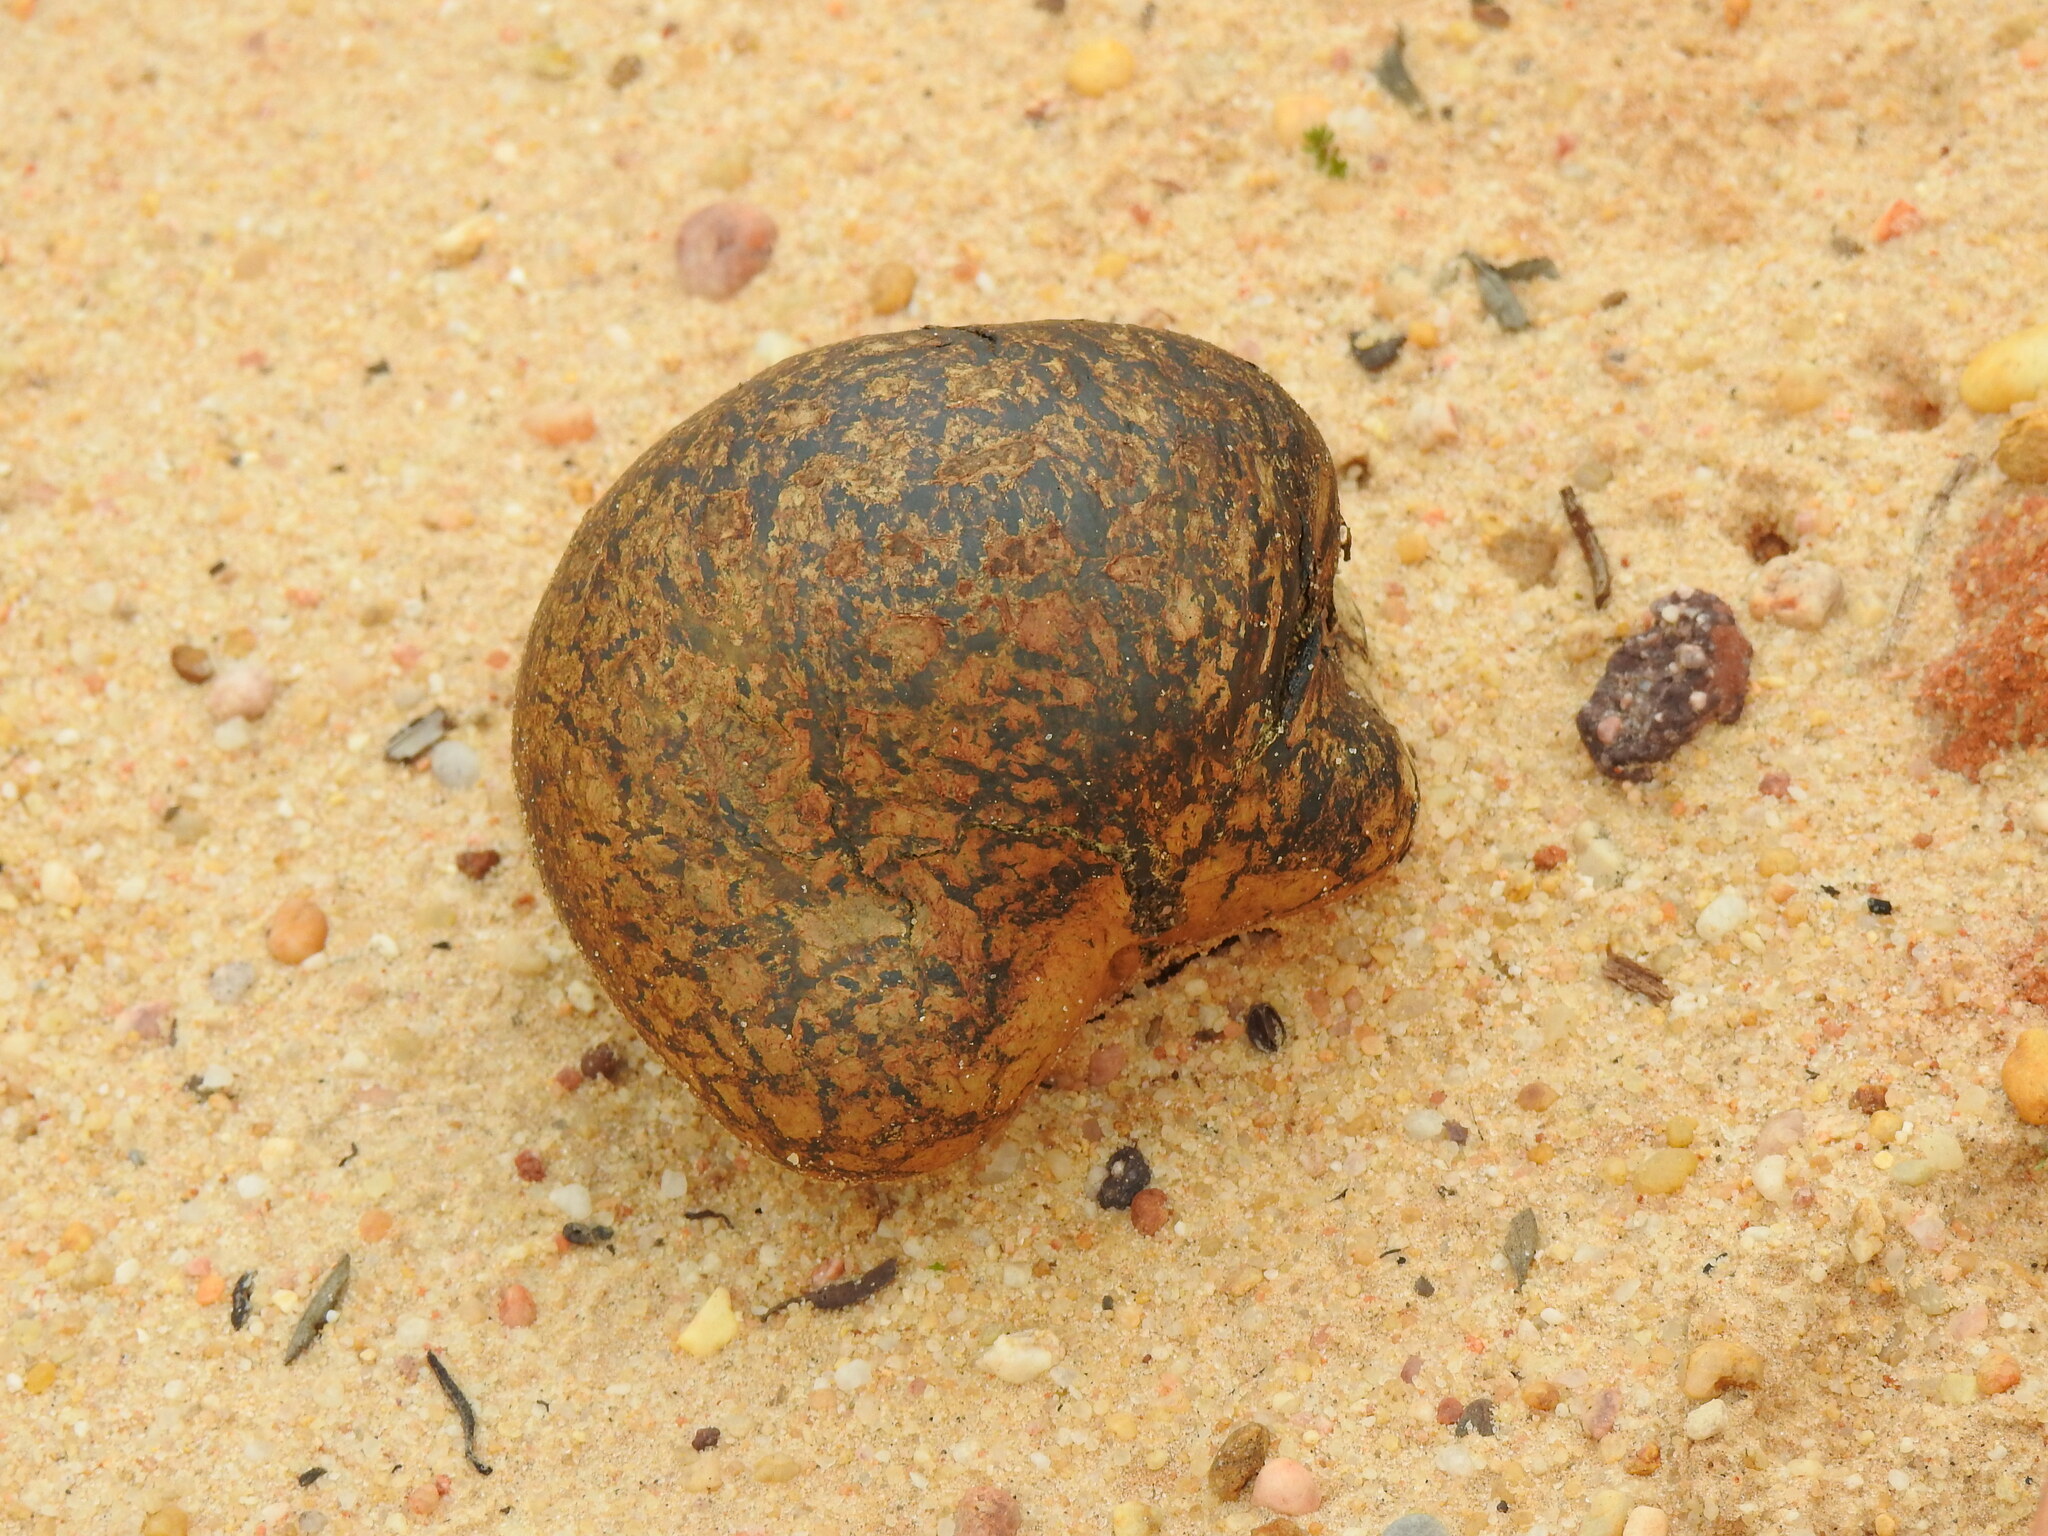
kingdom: Fungi
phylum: Basidiomycota
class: Agaricomycetes
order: Boletales
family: Sclerodermataceae
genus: Pisolithus
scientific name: Pisolithus arhizus
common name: Dyeball
